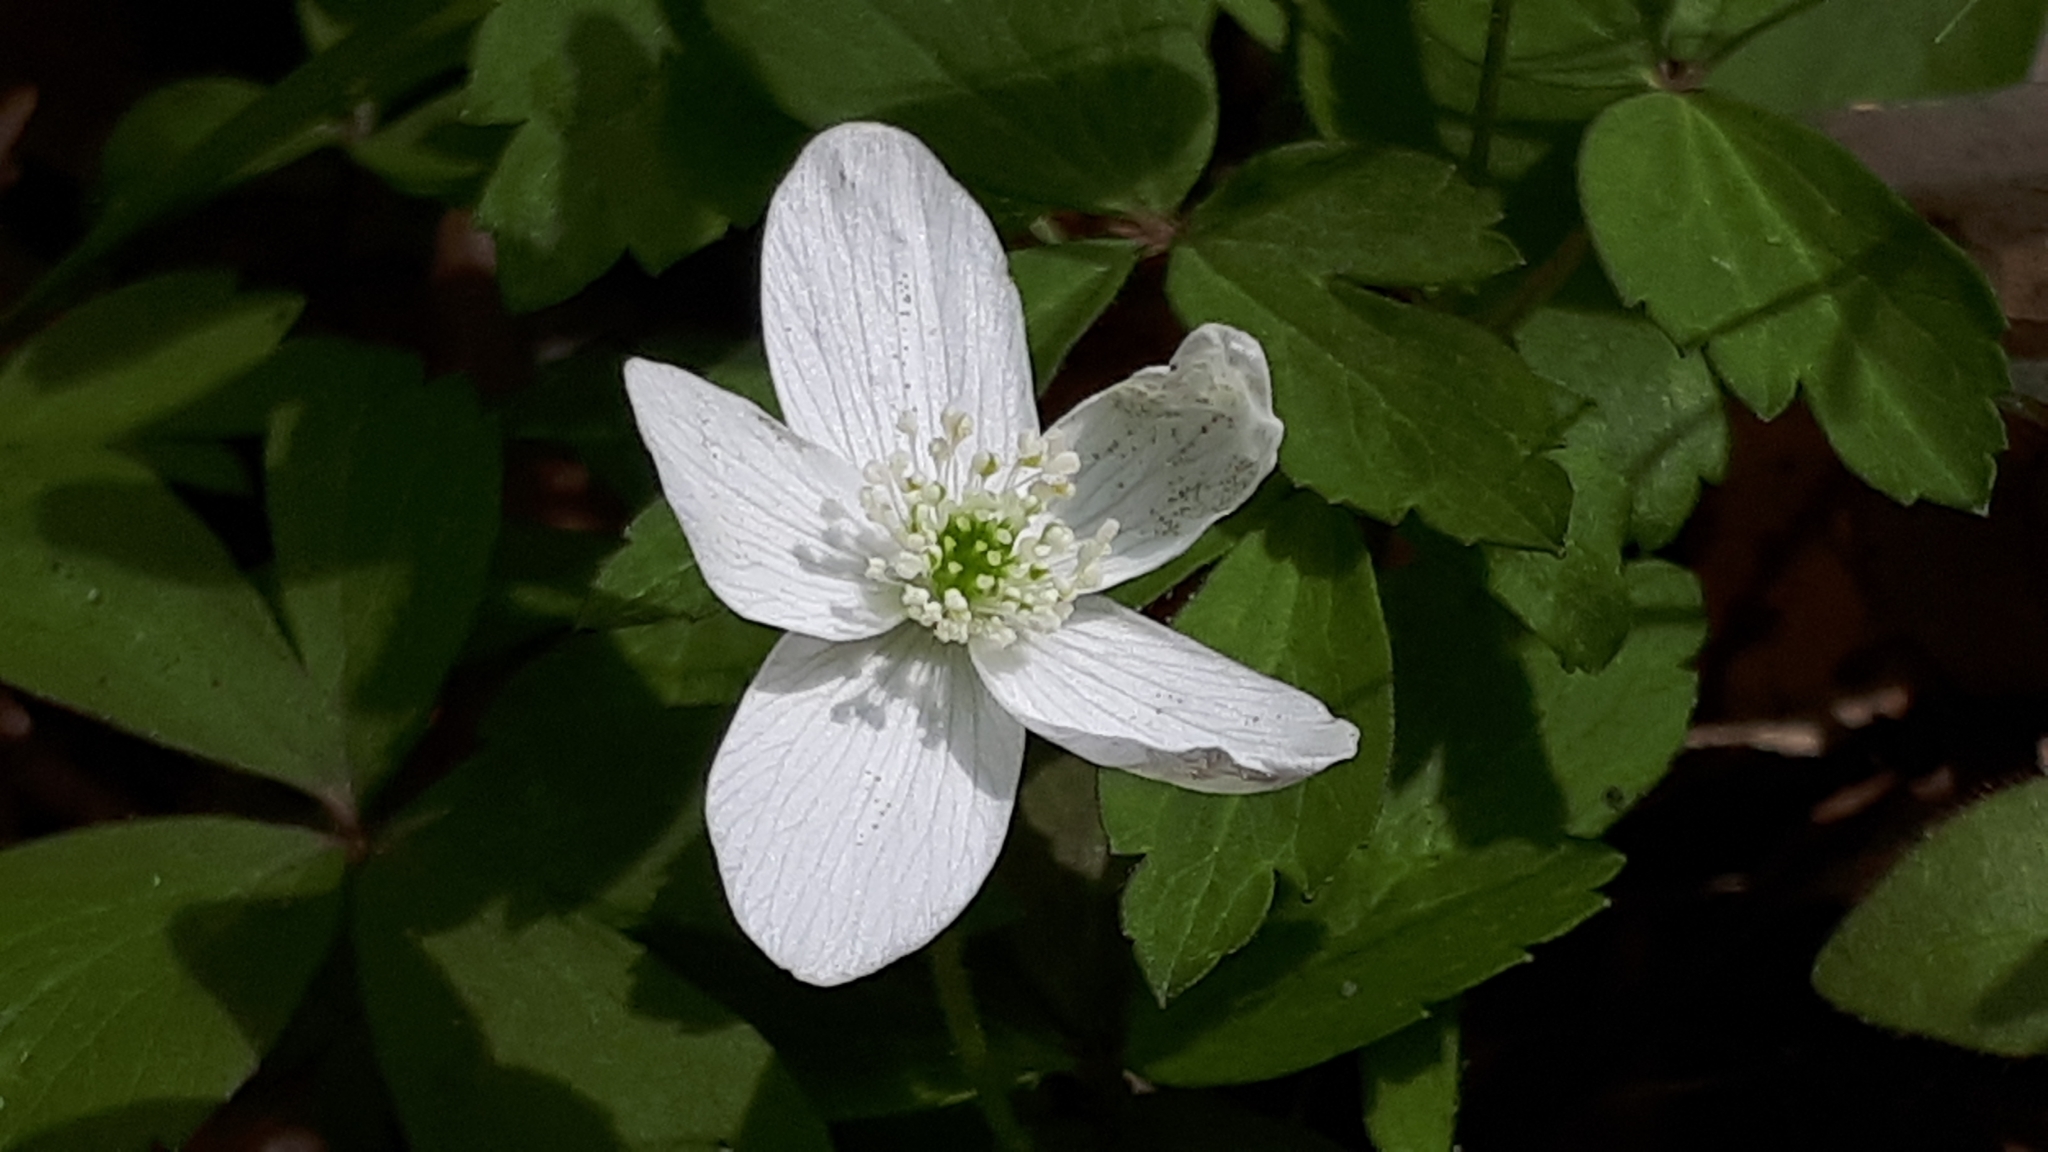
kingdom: Plantae
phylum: Tracheophyta
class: Magnoliopsida
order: Ranunculales
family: Ranunculaceae
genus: Anemone
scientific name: Anemone quinquefolia
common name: Wood anemone
